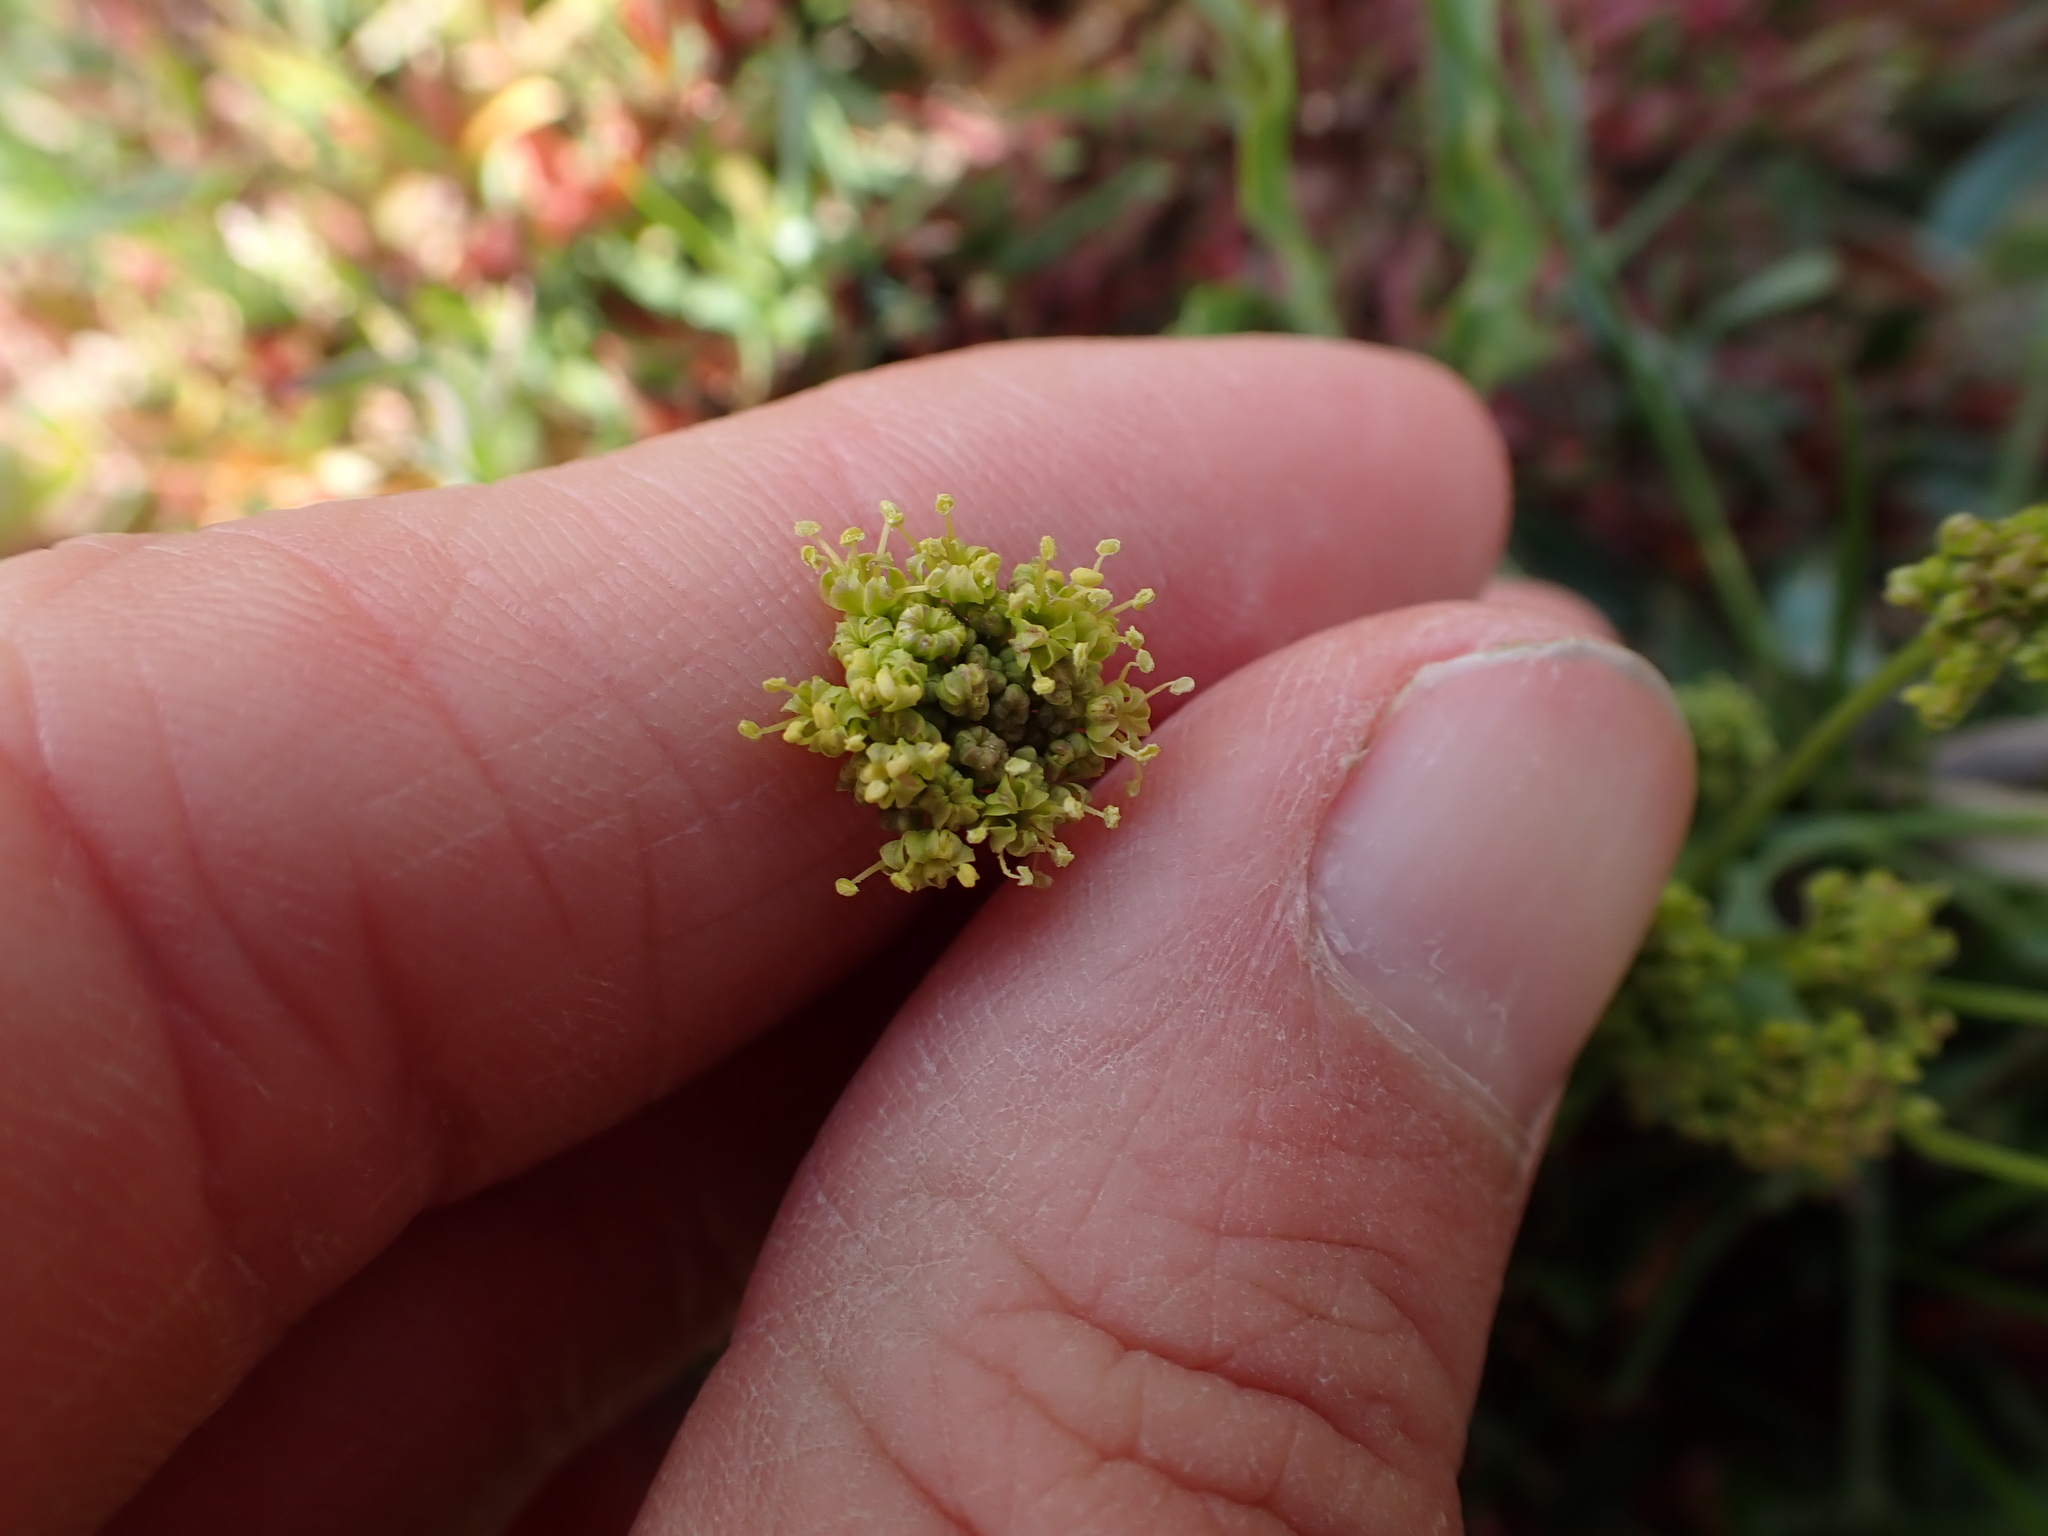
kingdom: Plantae
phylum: Tracheophyta
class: Magnoliopsida
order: Apiales
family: Apiaceae
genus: Lomatium
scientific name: Lomatium nudicaule
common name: Pestle lomatium
